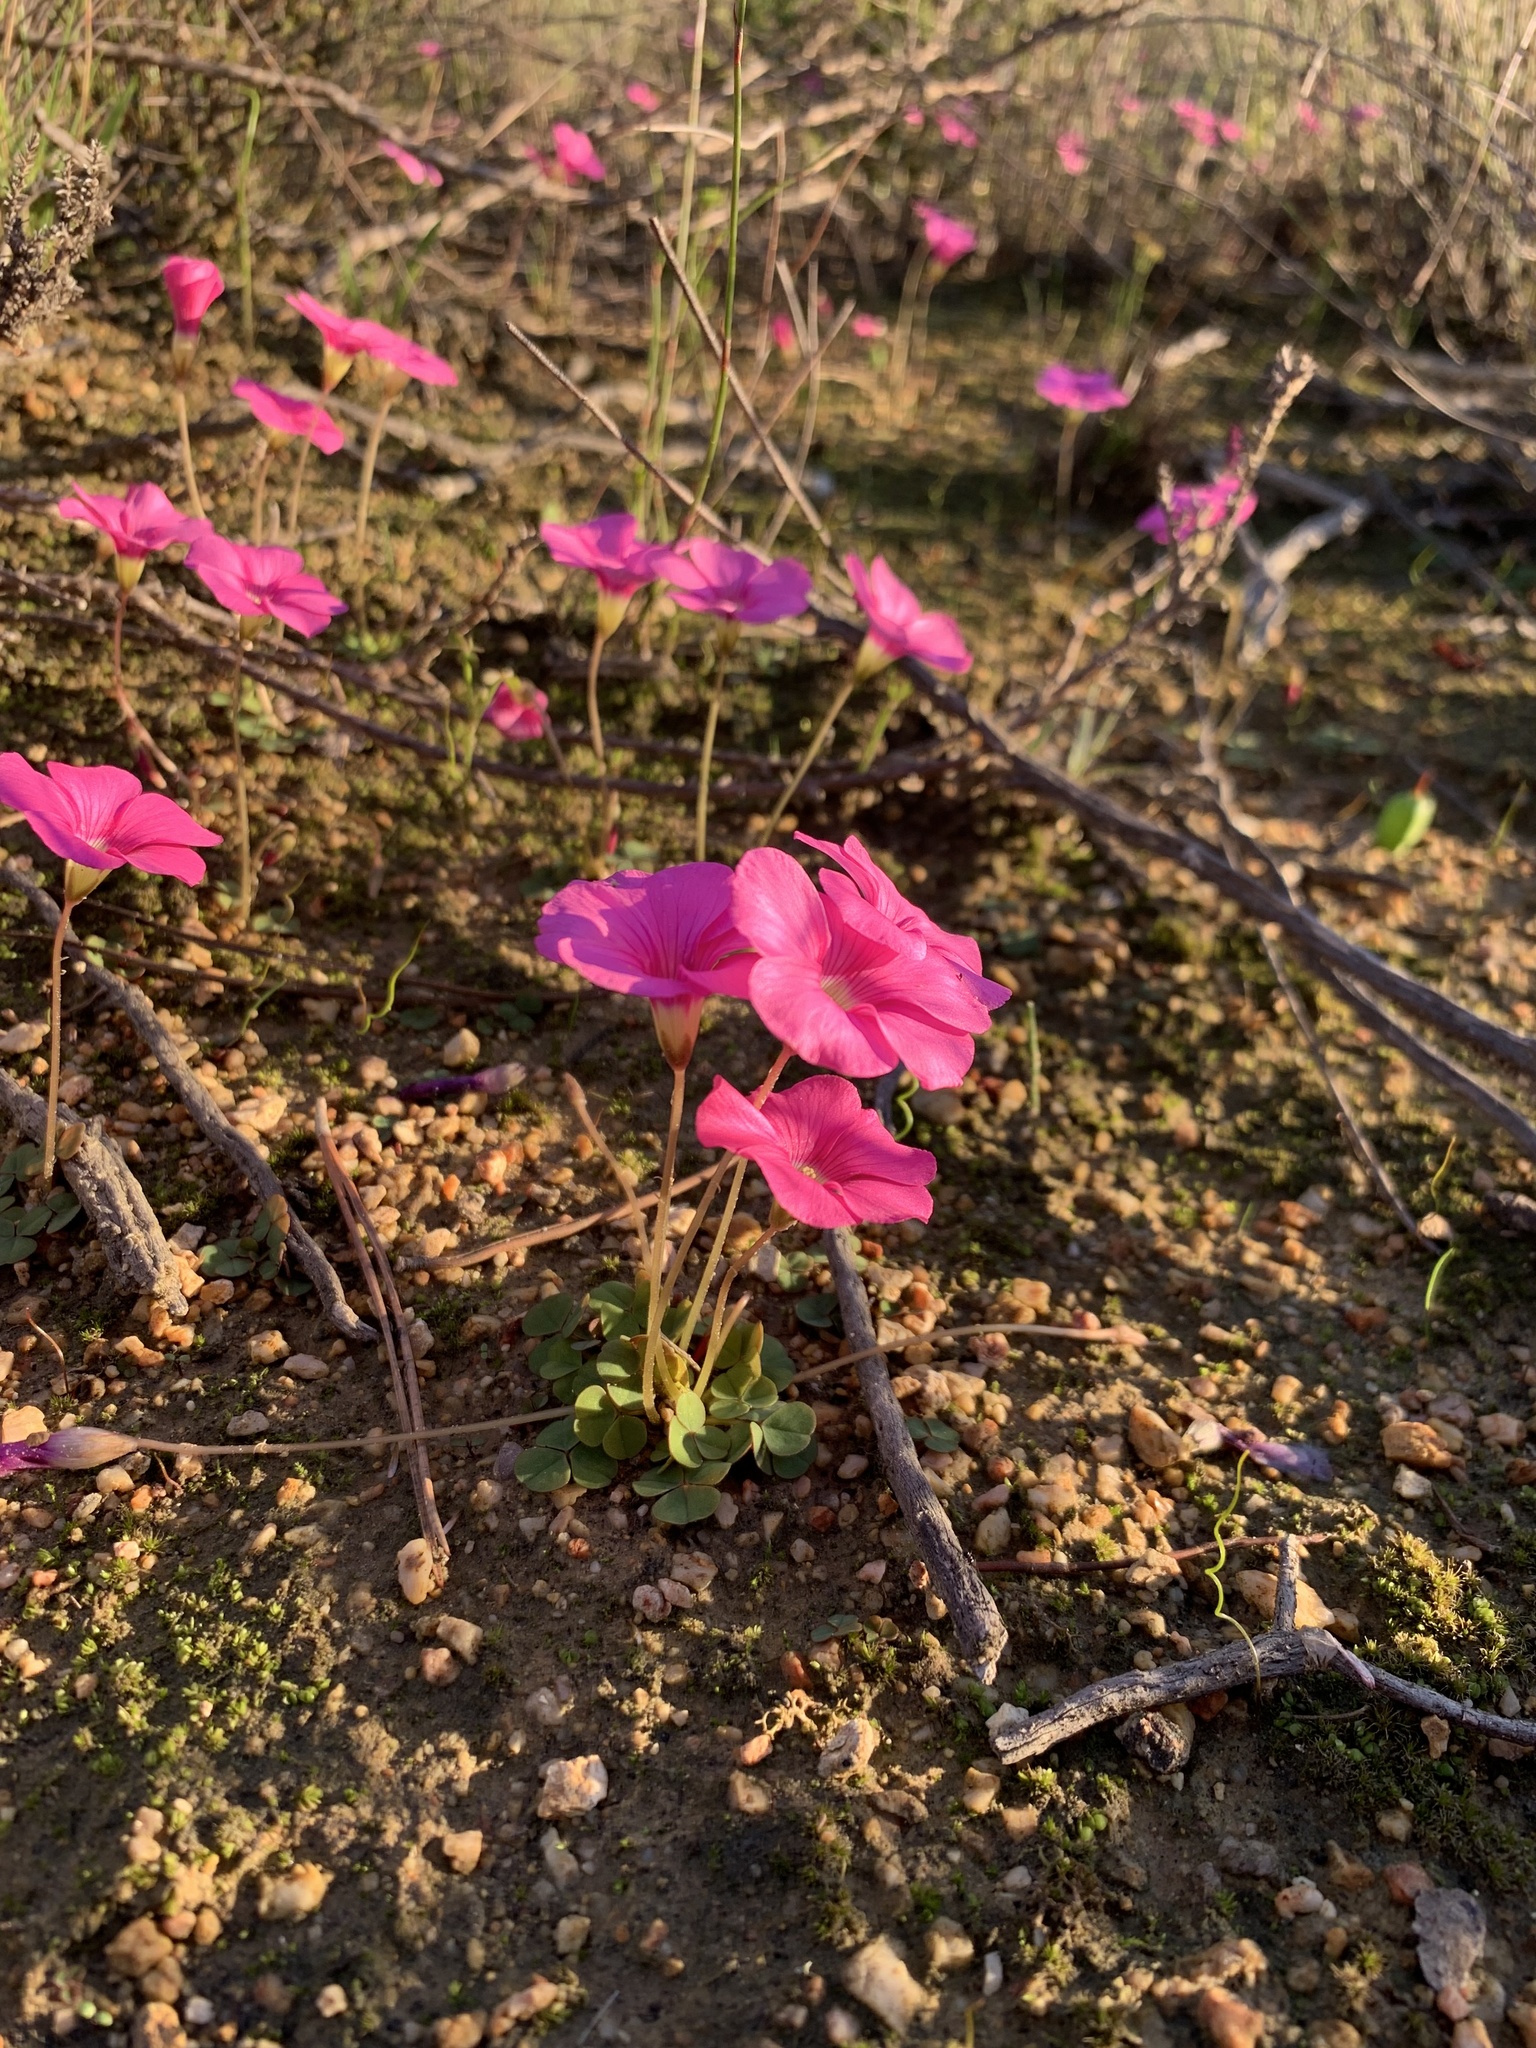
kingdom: Plantae
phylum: Tracheophyta
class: Magnoliopsida
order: Oxalidales
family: Oxalidaceae
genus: Oxalis
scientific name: Oxalis commutata
